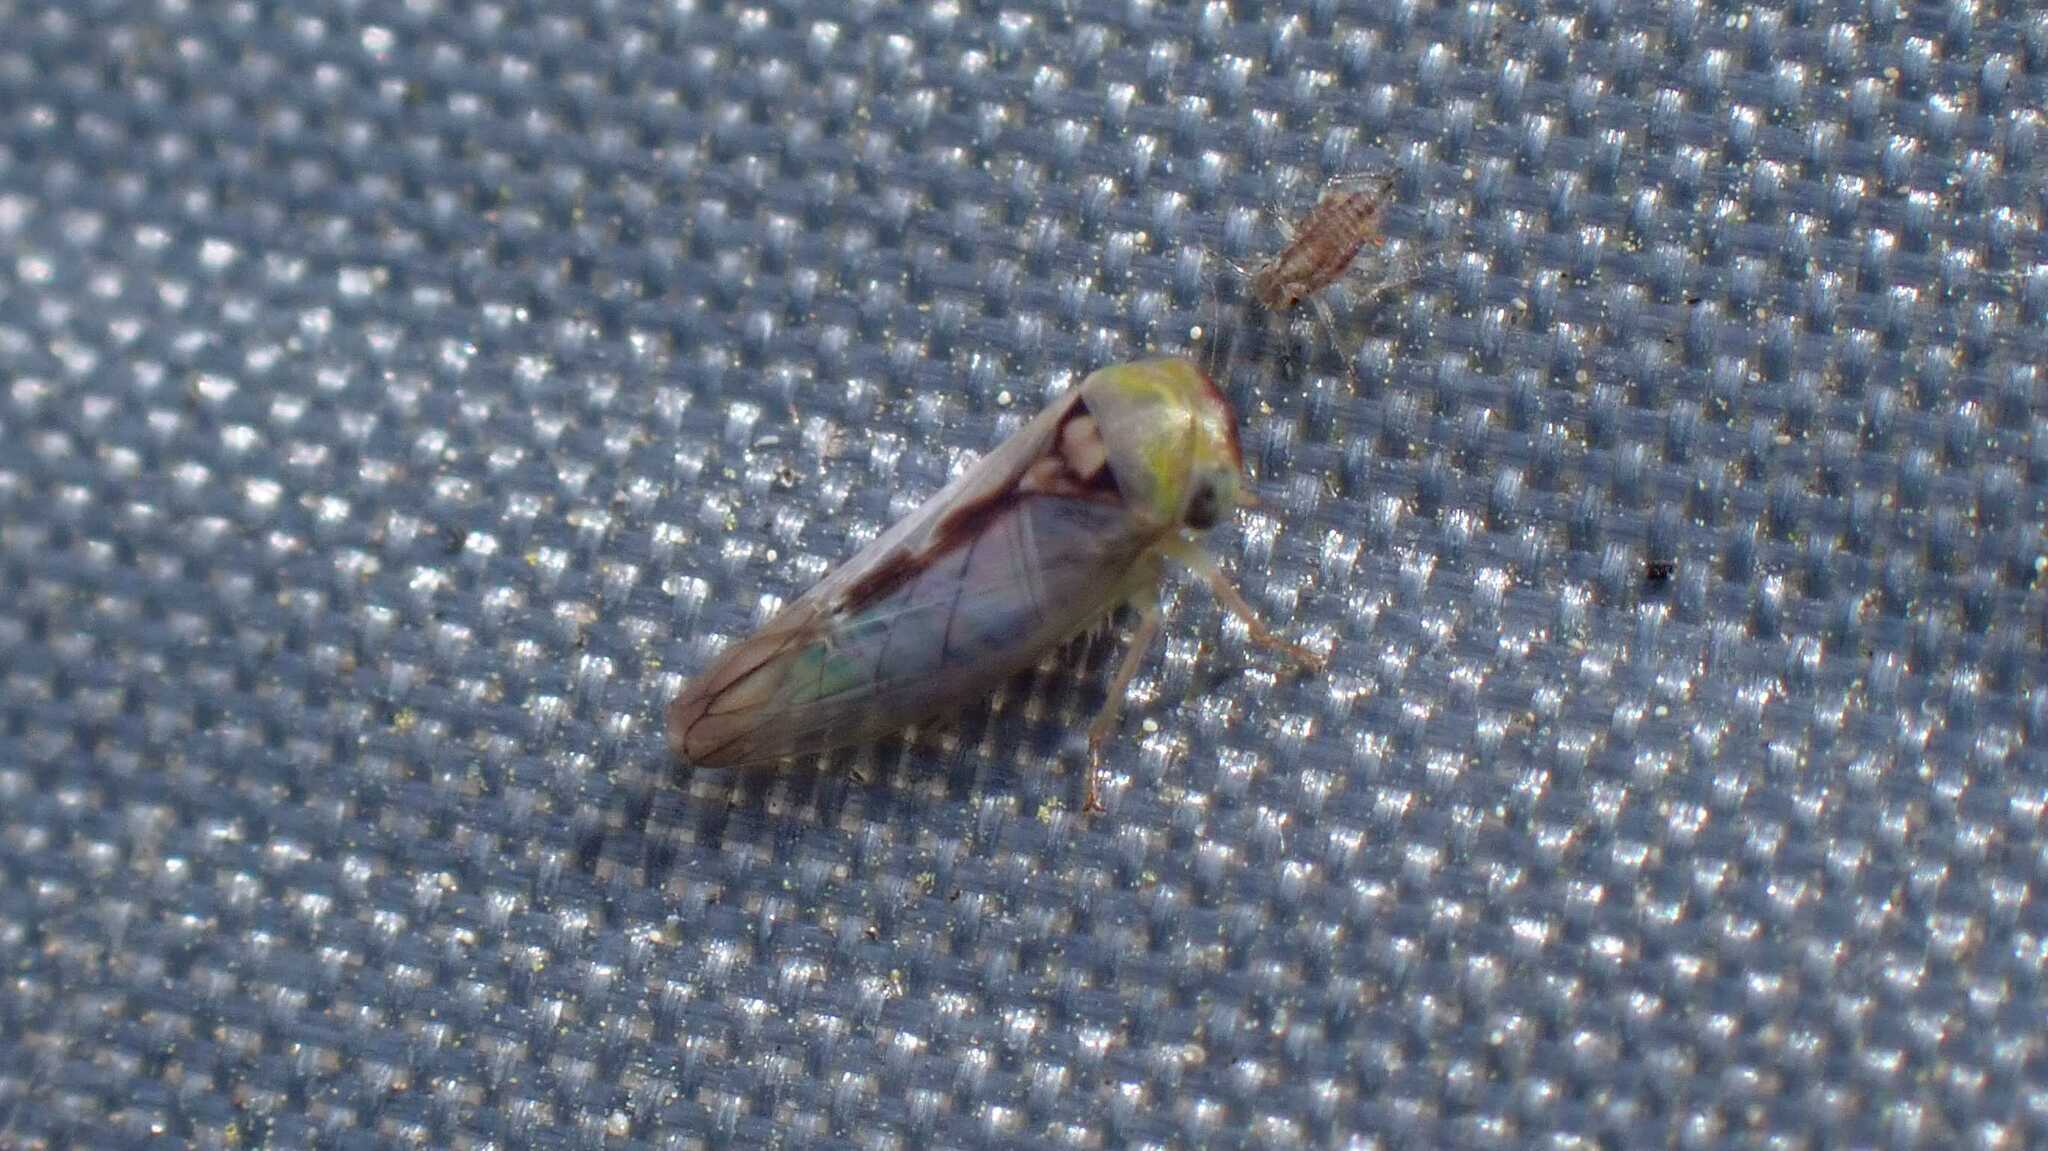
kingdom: Animalia
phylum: Arthropoda
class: Insecta
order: Hemiptera
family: Cicadellidae
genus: Viridicerus
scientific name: Viridicerus ustulatus
